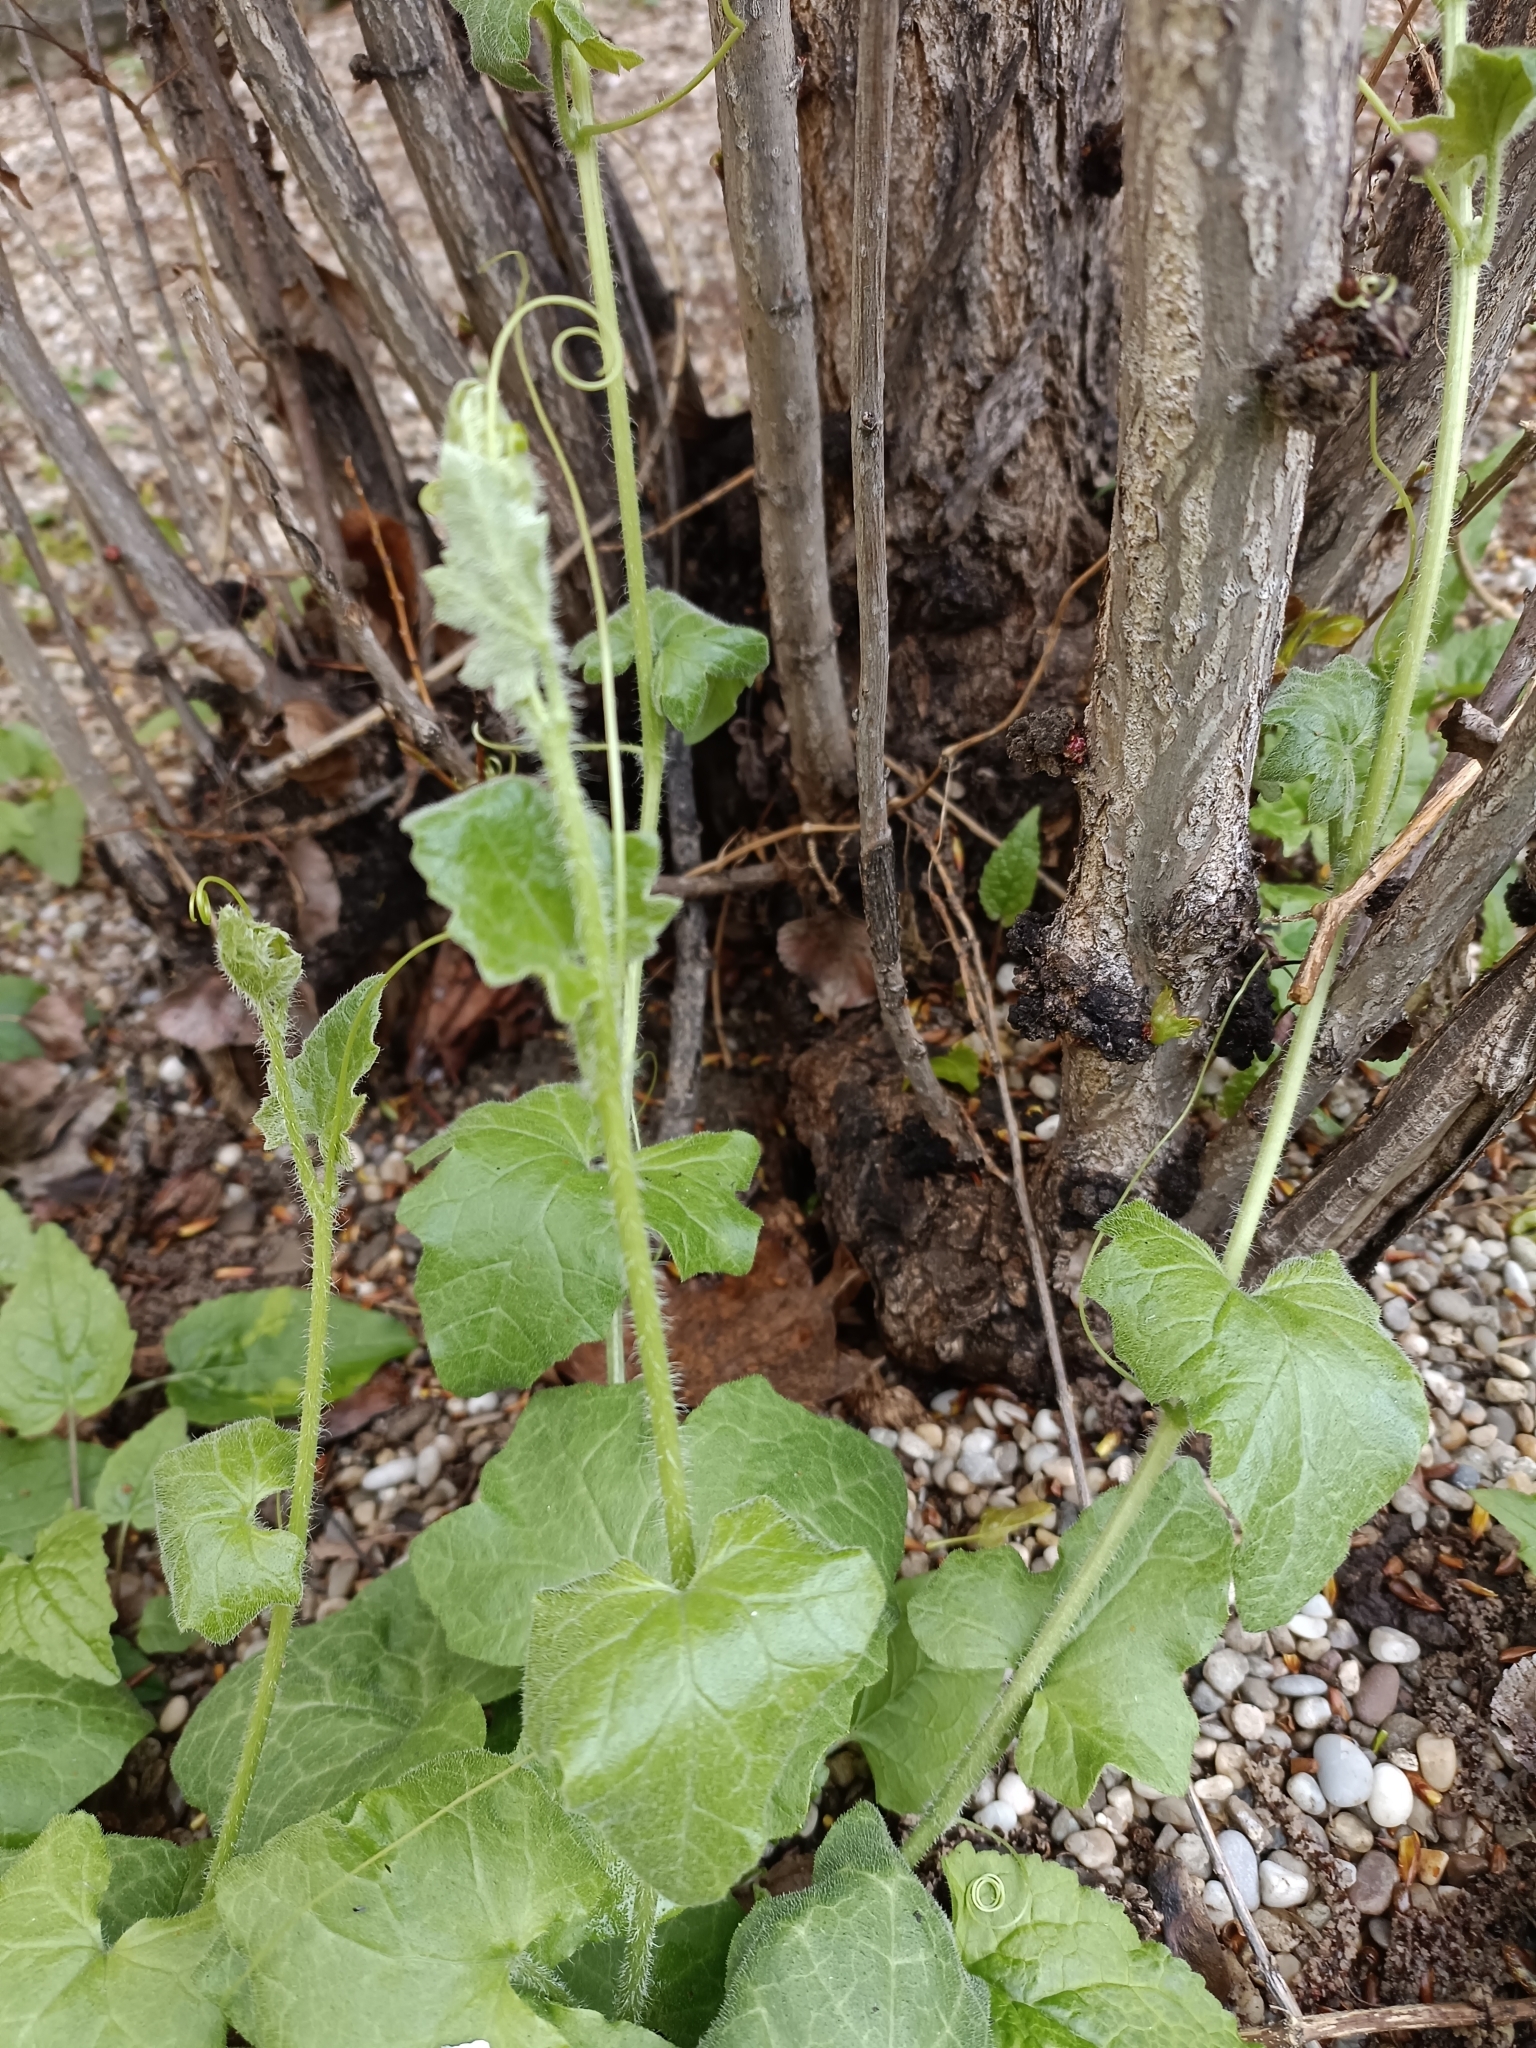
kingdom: Plantae
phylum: Tracheophyta
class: Magnoliopsida
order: Cucurbitales
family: Cucurbitaceae
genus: Bryonia
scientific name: Bryonia dioica
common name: White bryony
